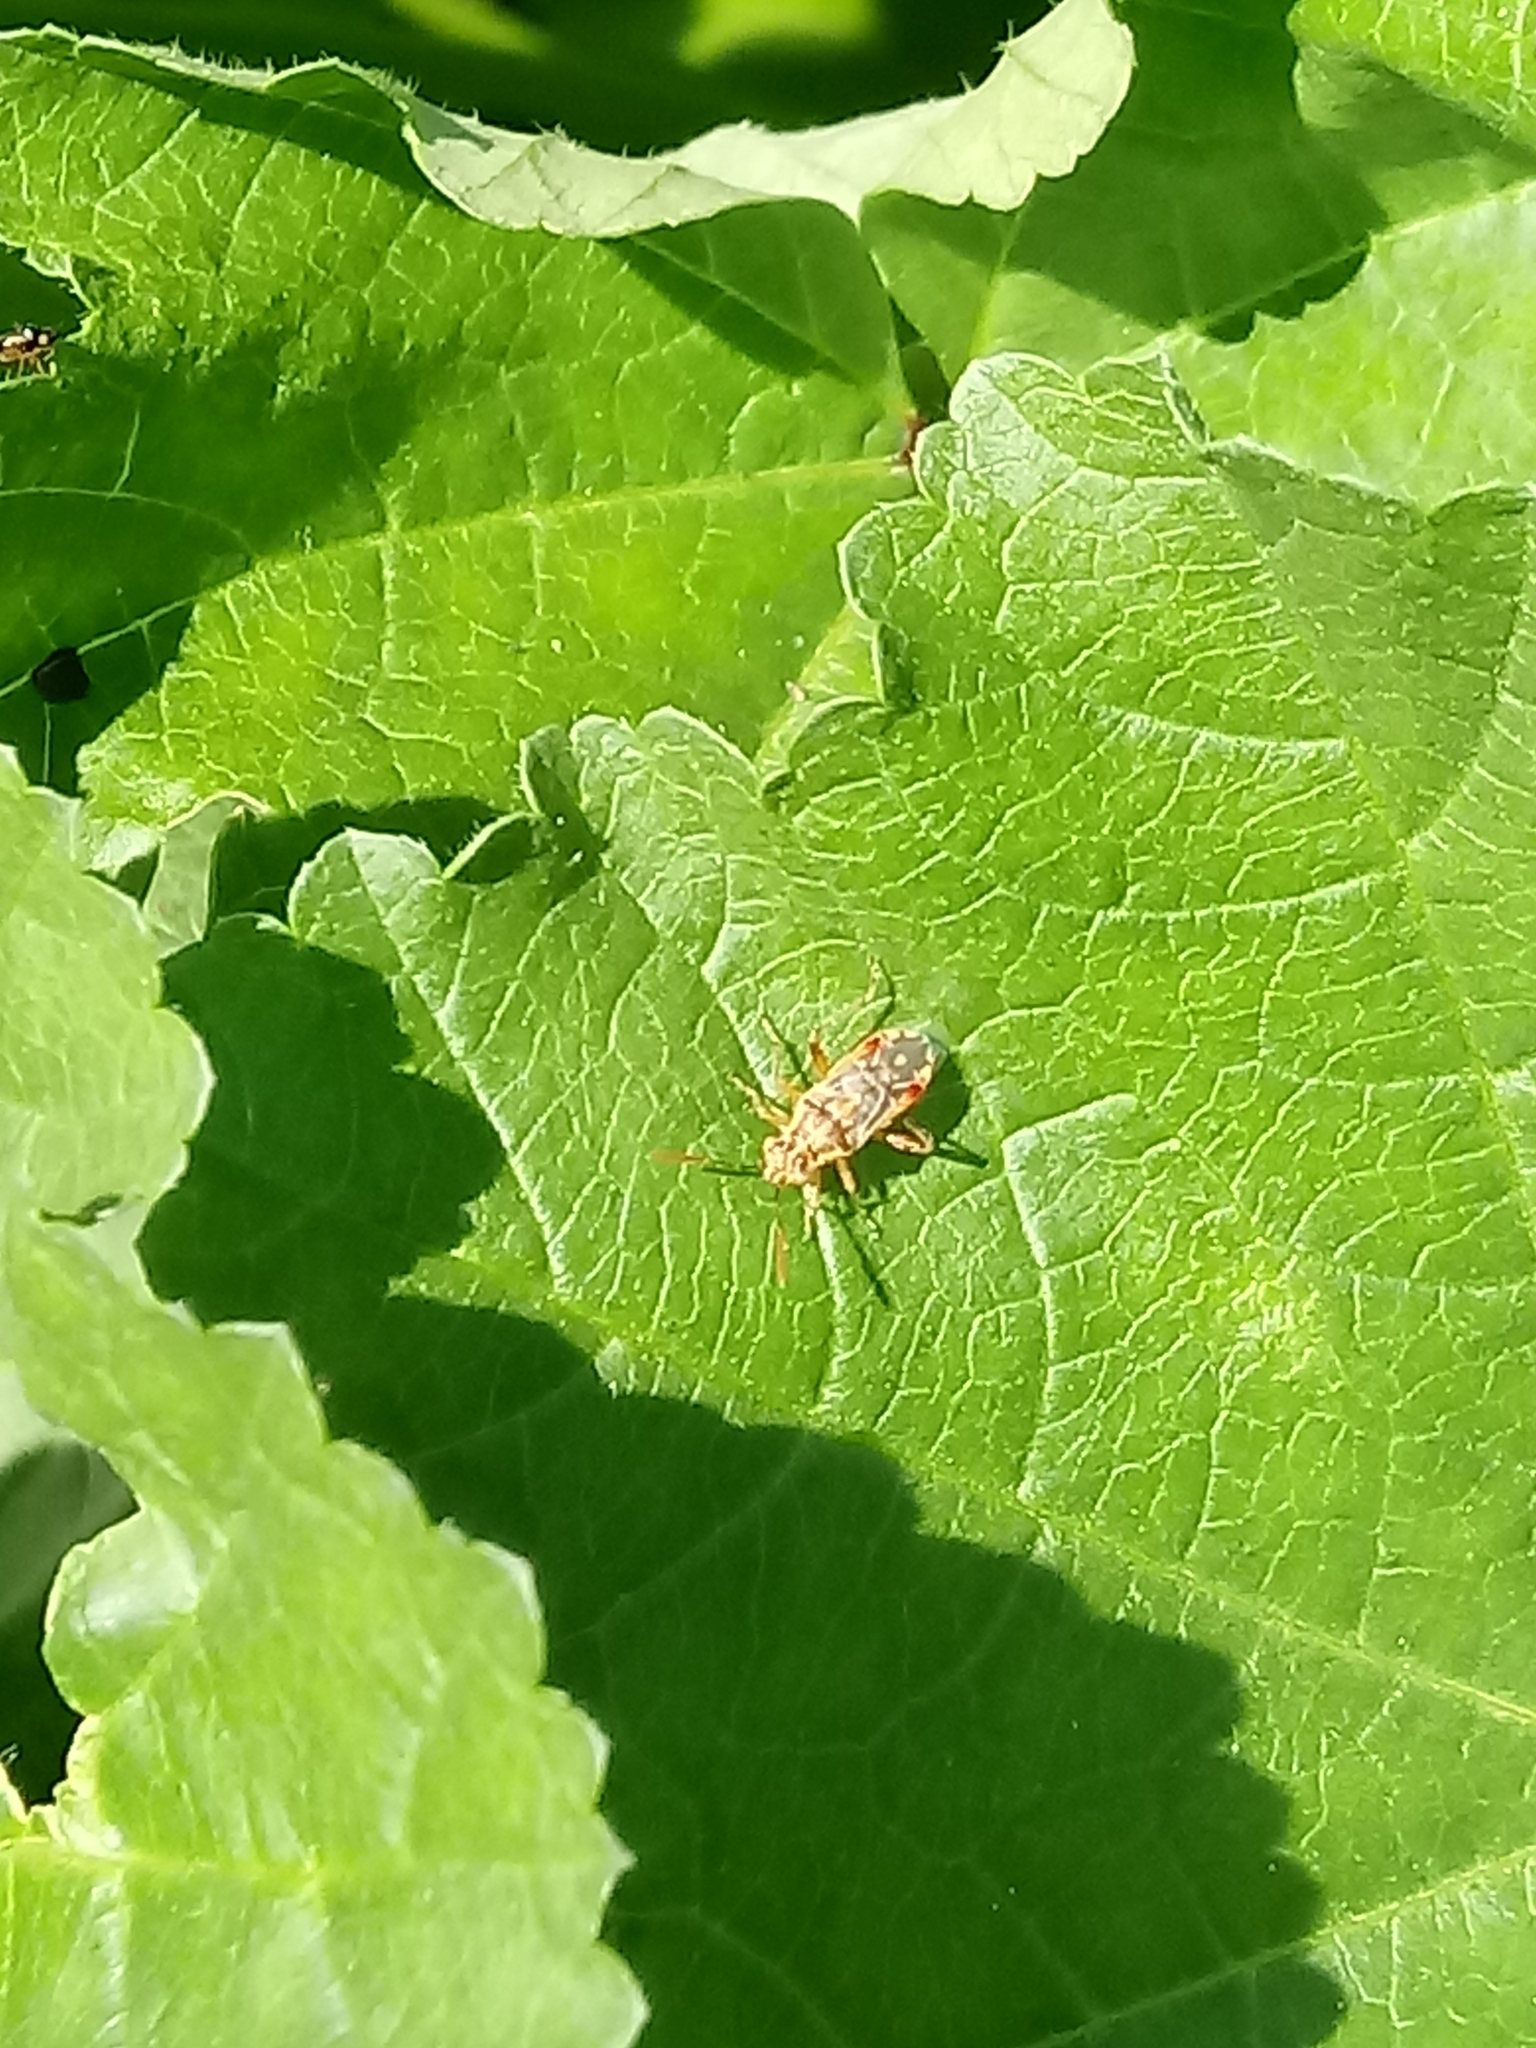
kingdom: Animalia
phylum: Arthropoda
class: Insecta
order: Hemiptera
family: Rhopalidae
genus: Liorhyssus
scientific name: Liorhyssus hyalinus
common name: Scentless plant bug
